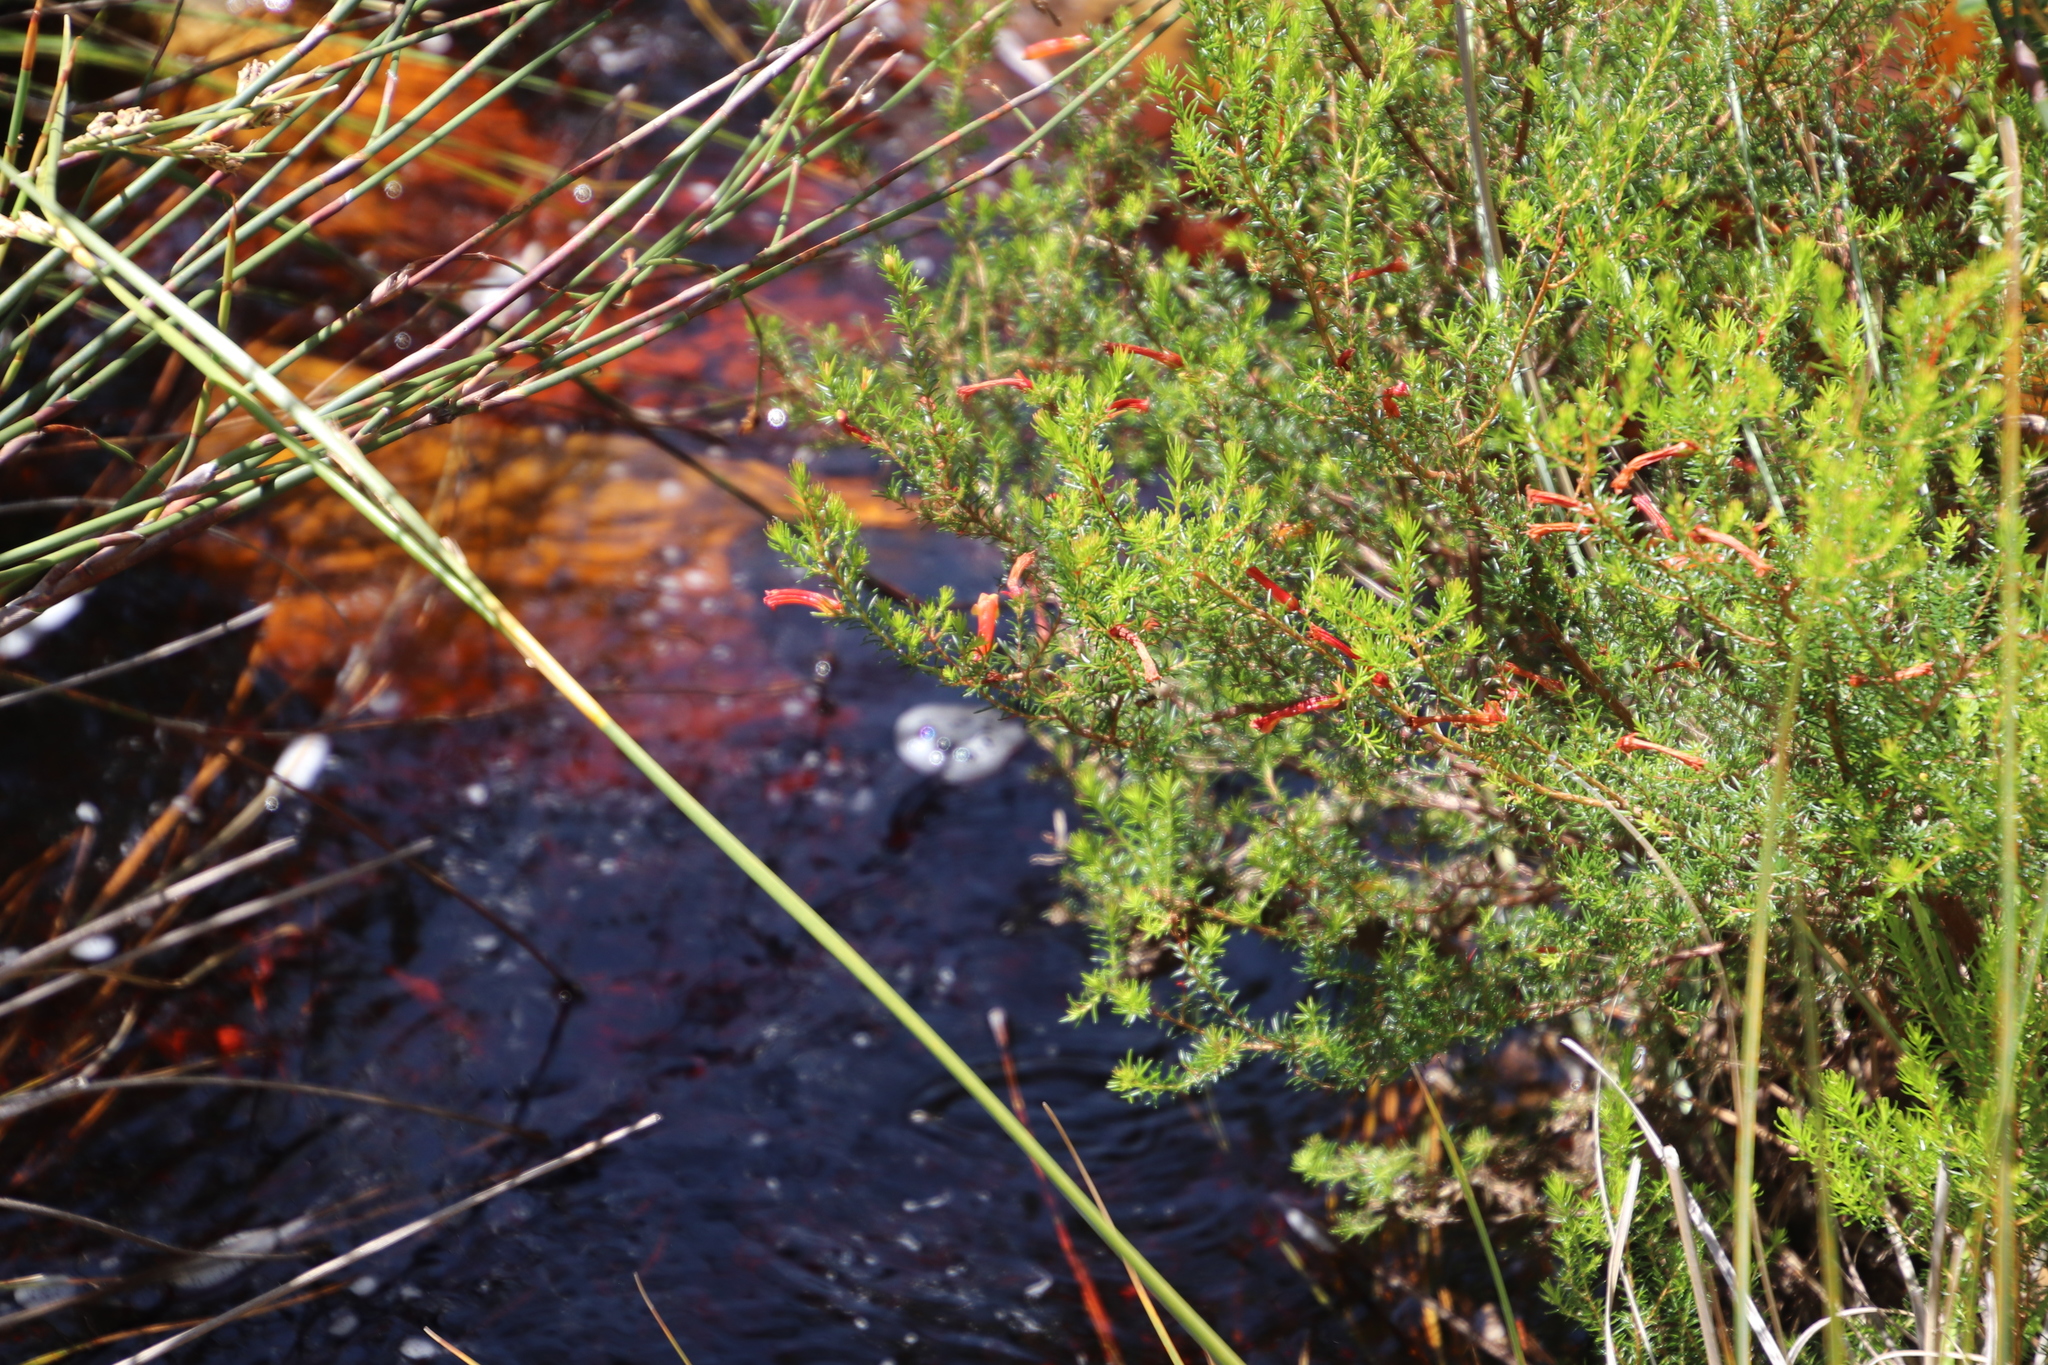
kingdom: Plantae
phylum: Tracheophyta
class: Magnoliopsida
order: Ericales
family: Ericaceae
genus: Erica
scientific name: Erica curviflora
